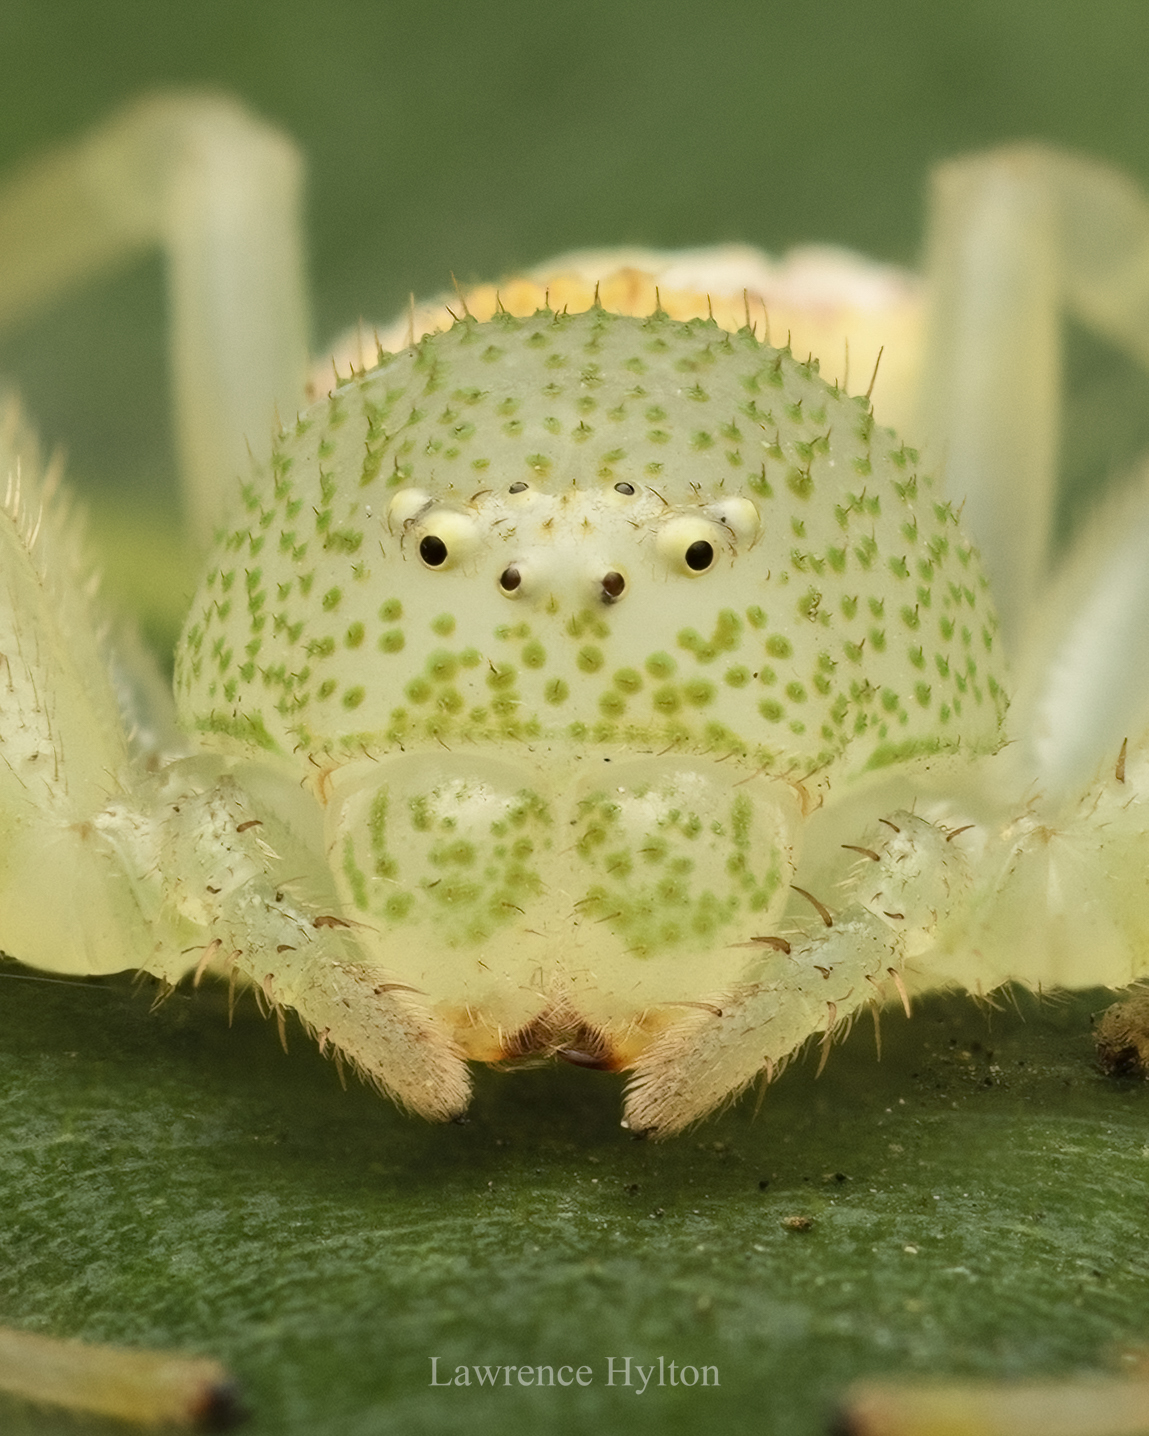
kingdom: Animalia
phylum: Arthropoda
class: Arachnida
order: Araneae
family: Thomisidae
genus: Diaea
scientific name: Diaea simplex
